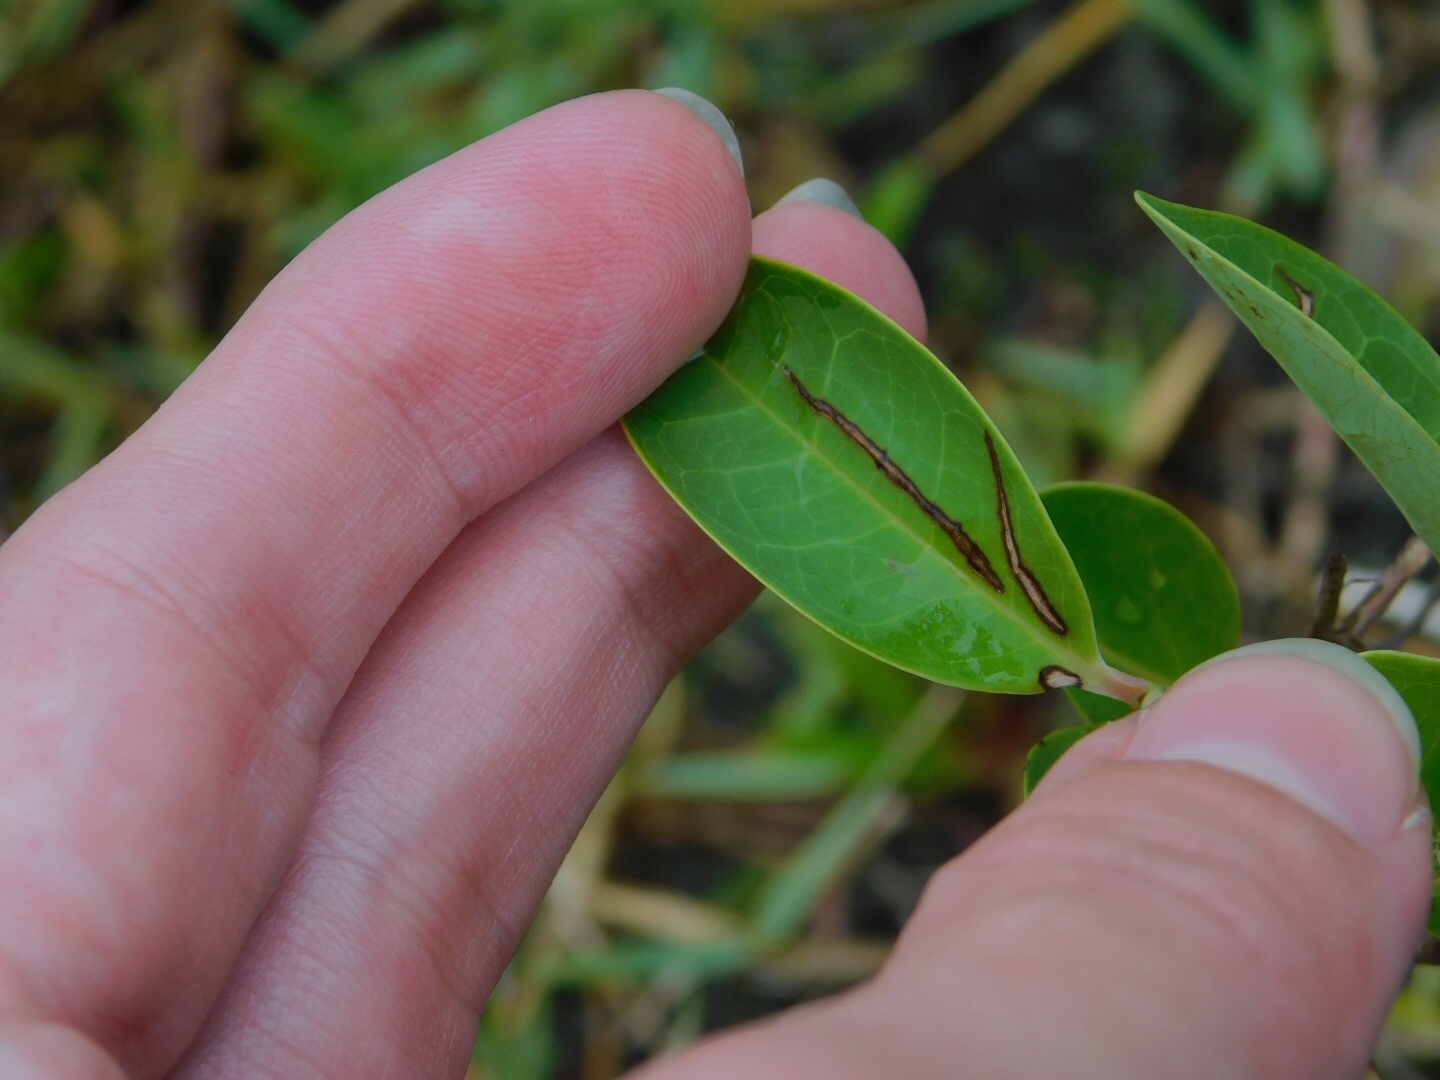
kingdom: Plantae
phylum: Tracheophyta
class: Magnoliopsida
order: Magnoliales
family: Annonaceae
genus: Annona
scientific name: Annona glabra
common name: Monkey apple
